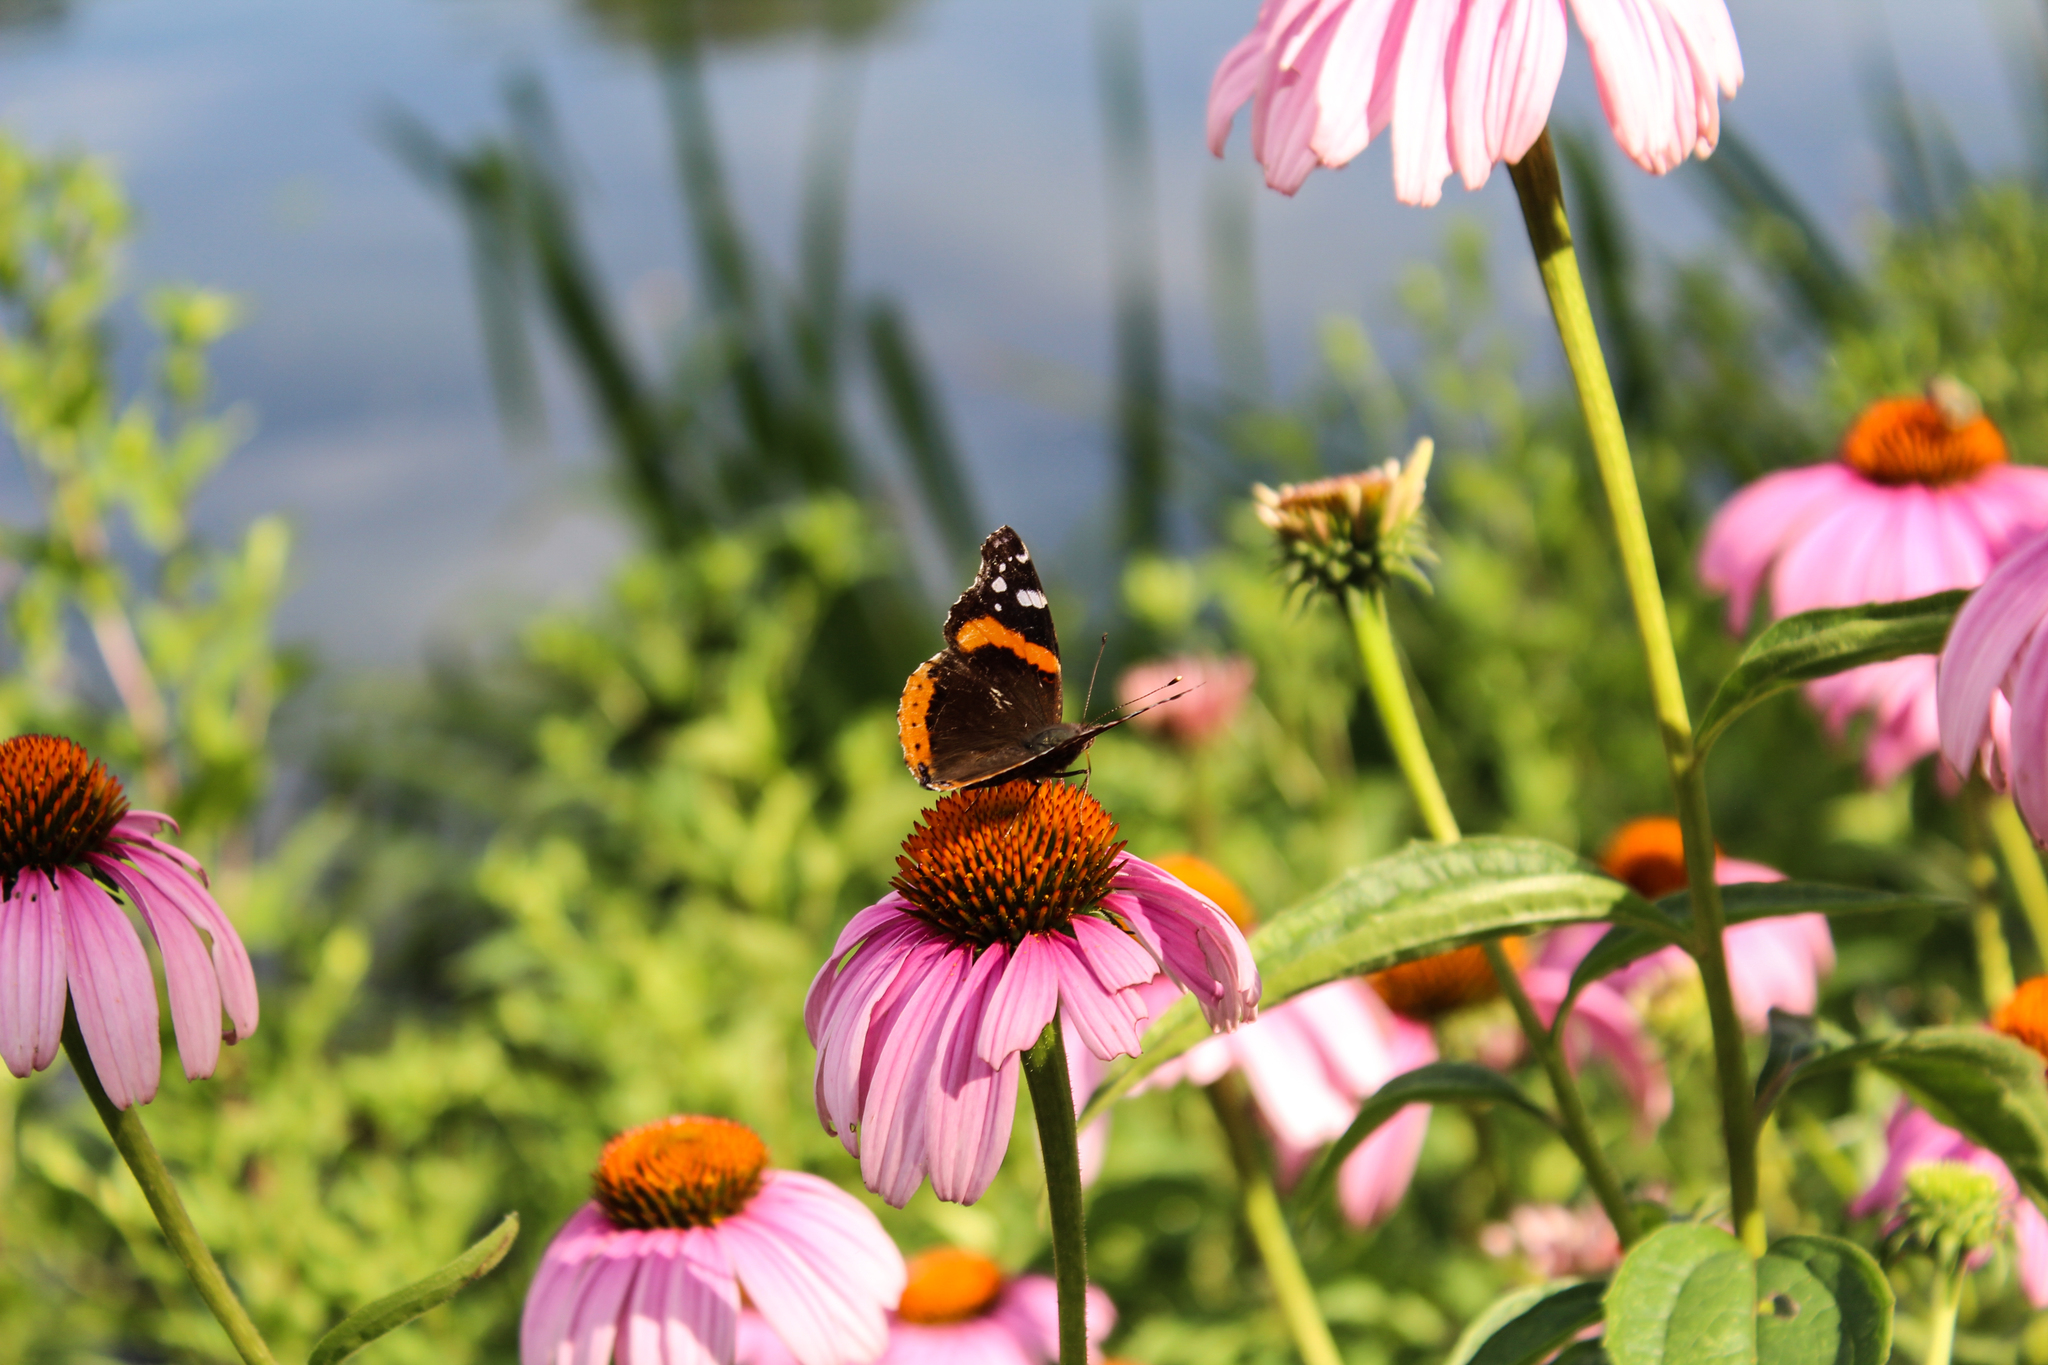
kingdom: Animalia
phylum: Arthropoda
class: Insecta
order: Lepidoptera
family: Nymphalidae
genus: Vanessa
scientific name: Vanessa atalanta
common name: Red admiral
